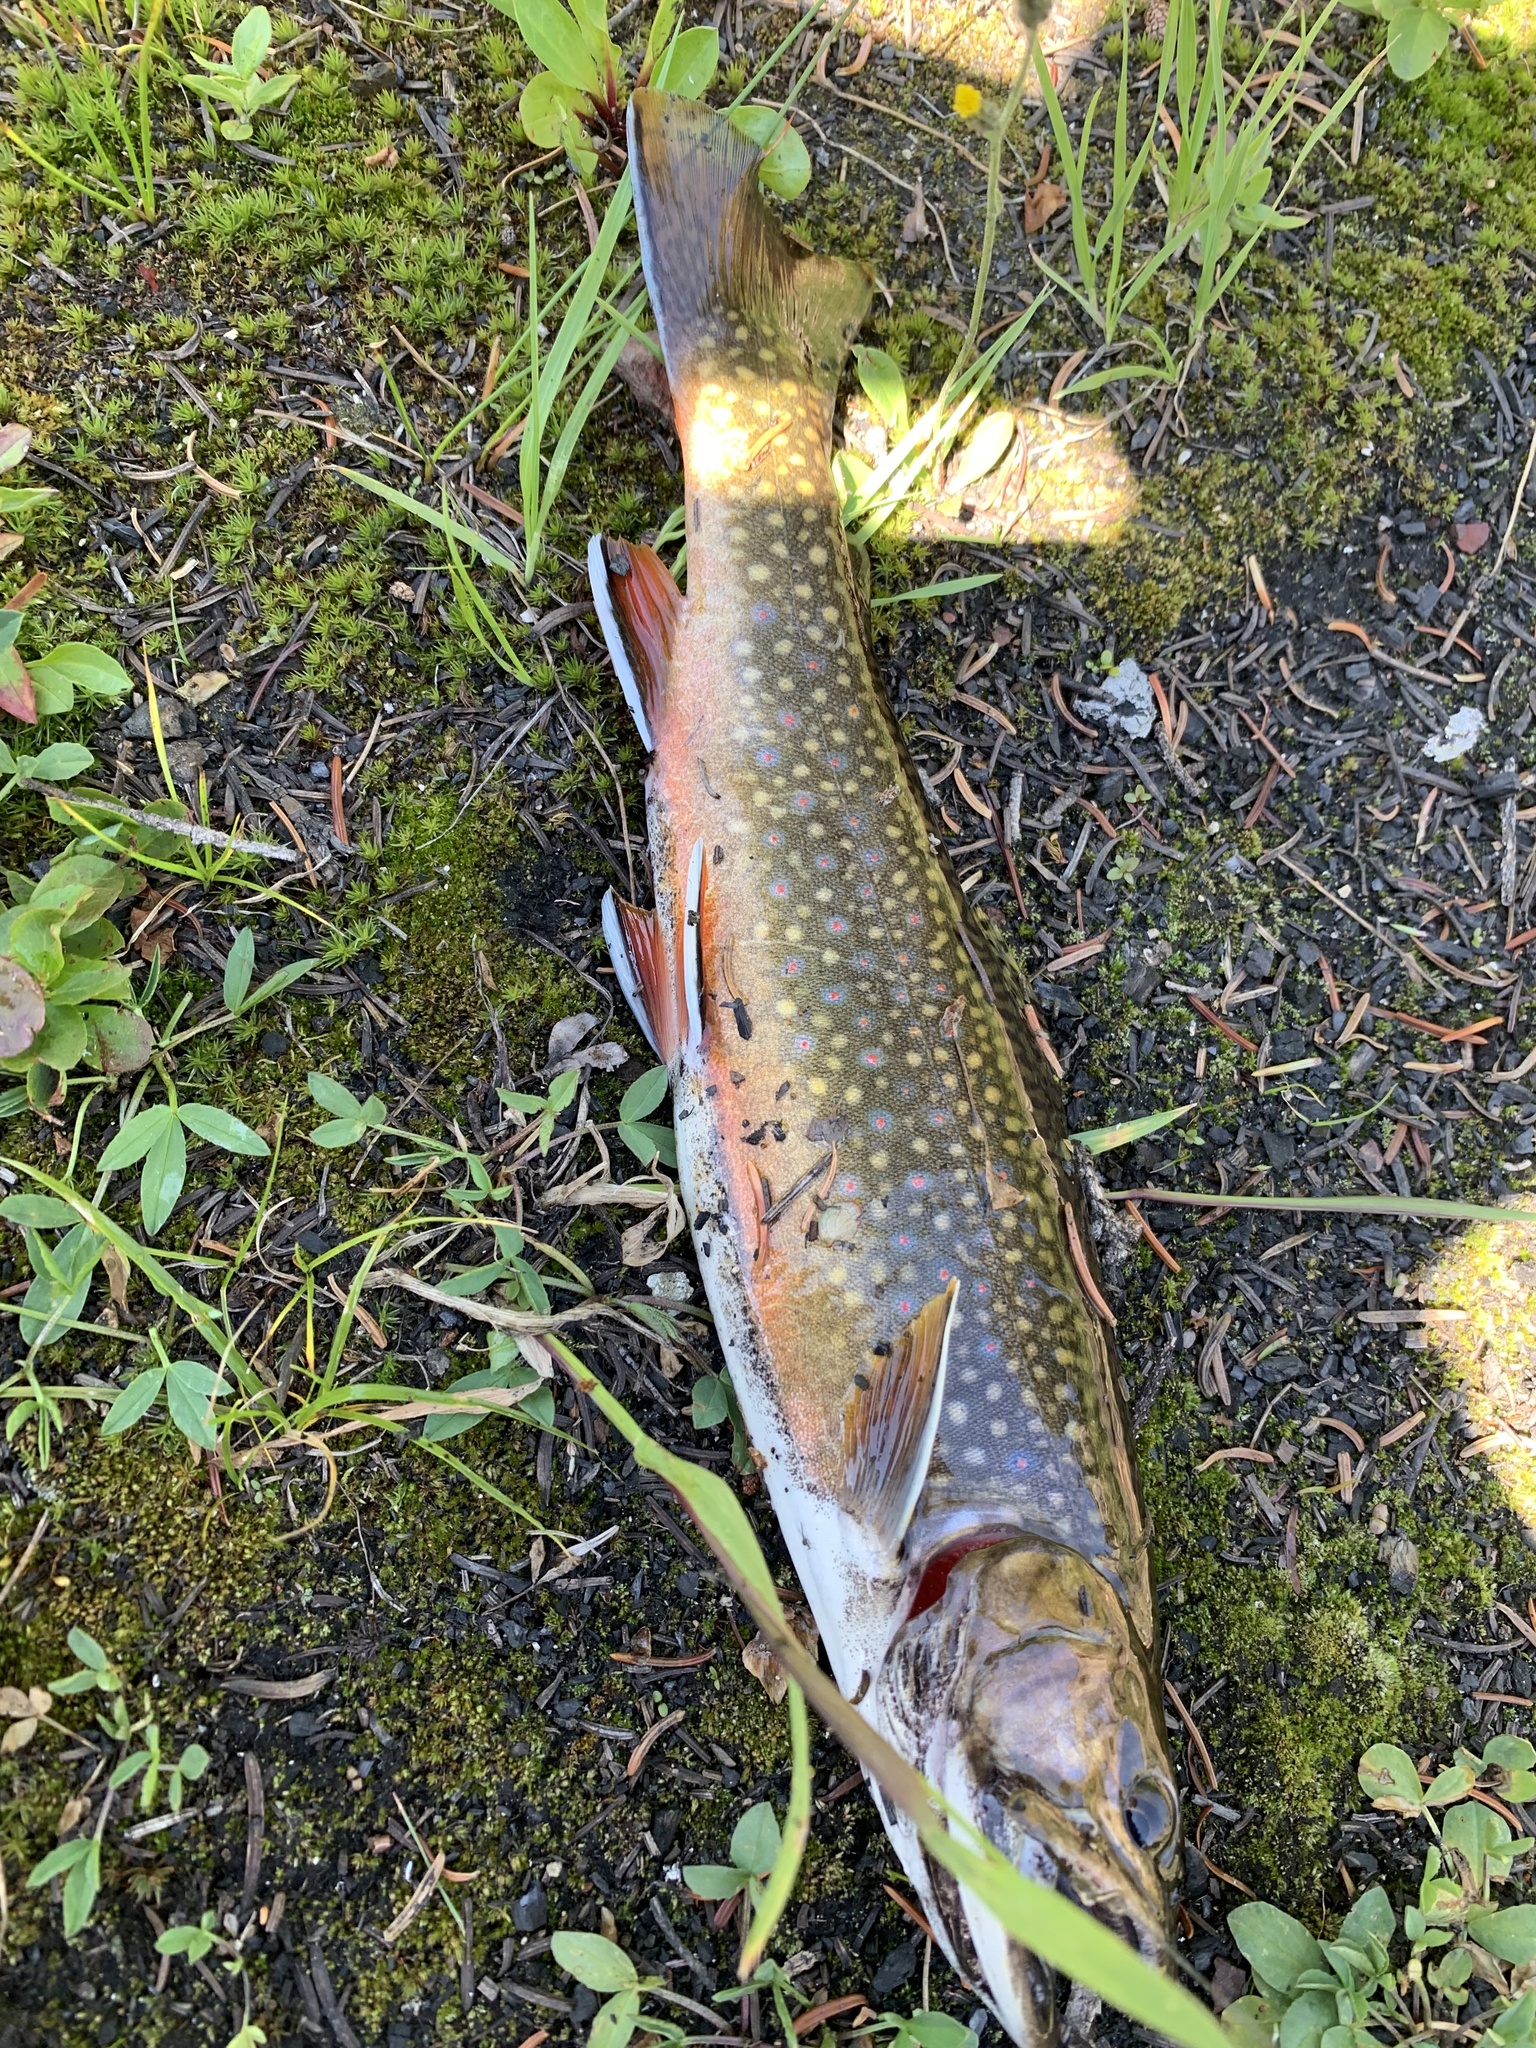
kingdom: Animalia
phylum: Chordata
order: Salmoniformes
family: Salmonidae
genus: Salvelinus
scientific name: Salvelinus fontinalis
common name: Brook trout
